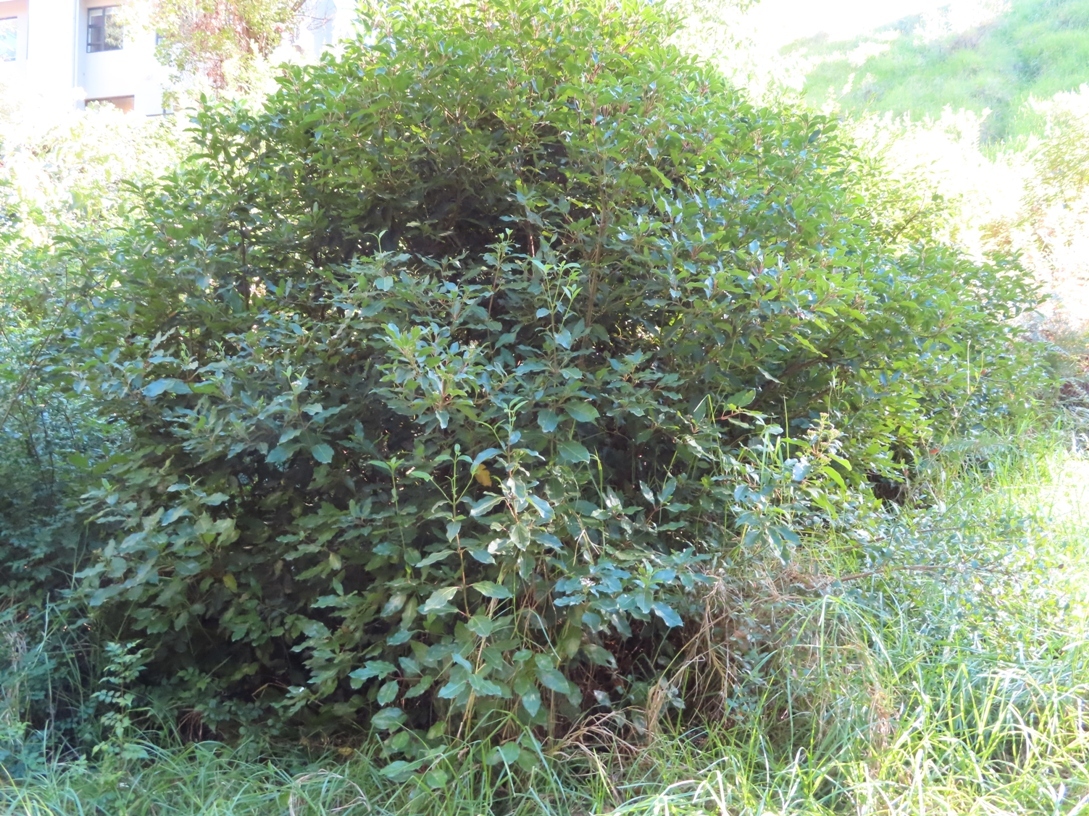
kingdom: Plantae
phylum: Tracheophyta
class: Magnoliopsida
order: Dipsacales
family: Viburnaceae
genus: Viburnum
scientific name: Viburnum tinus
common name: Laurustinus
